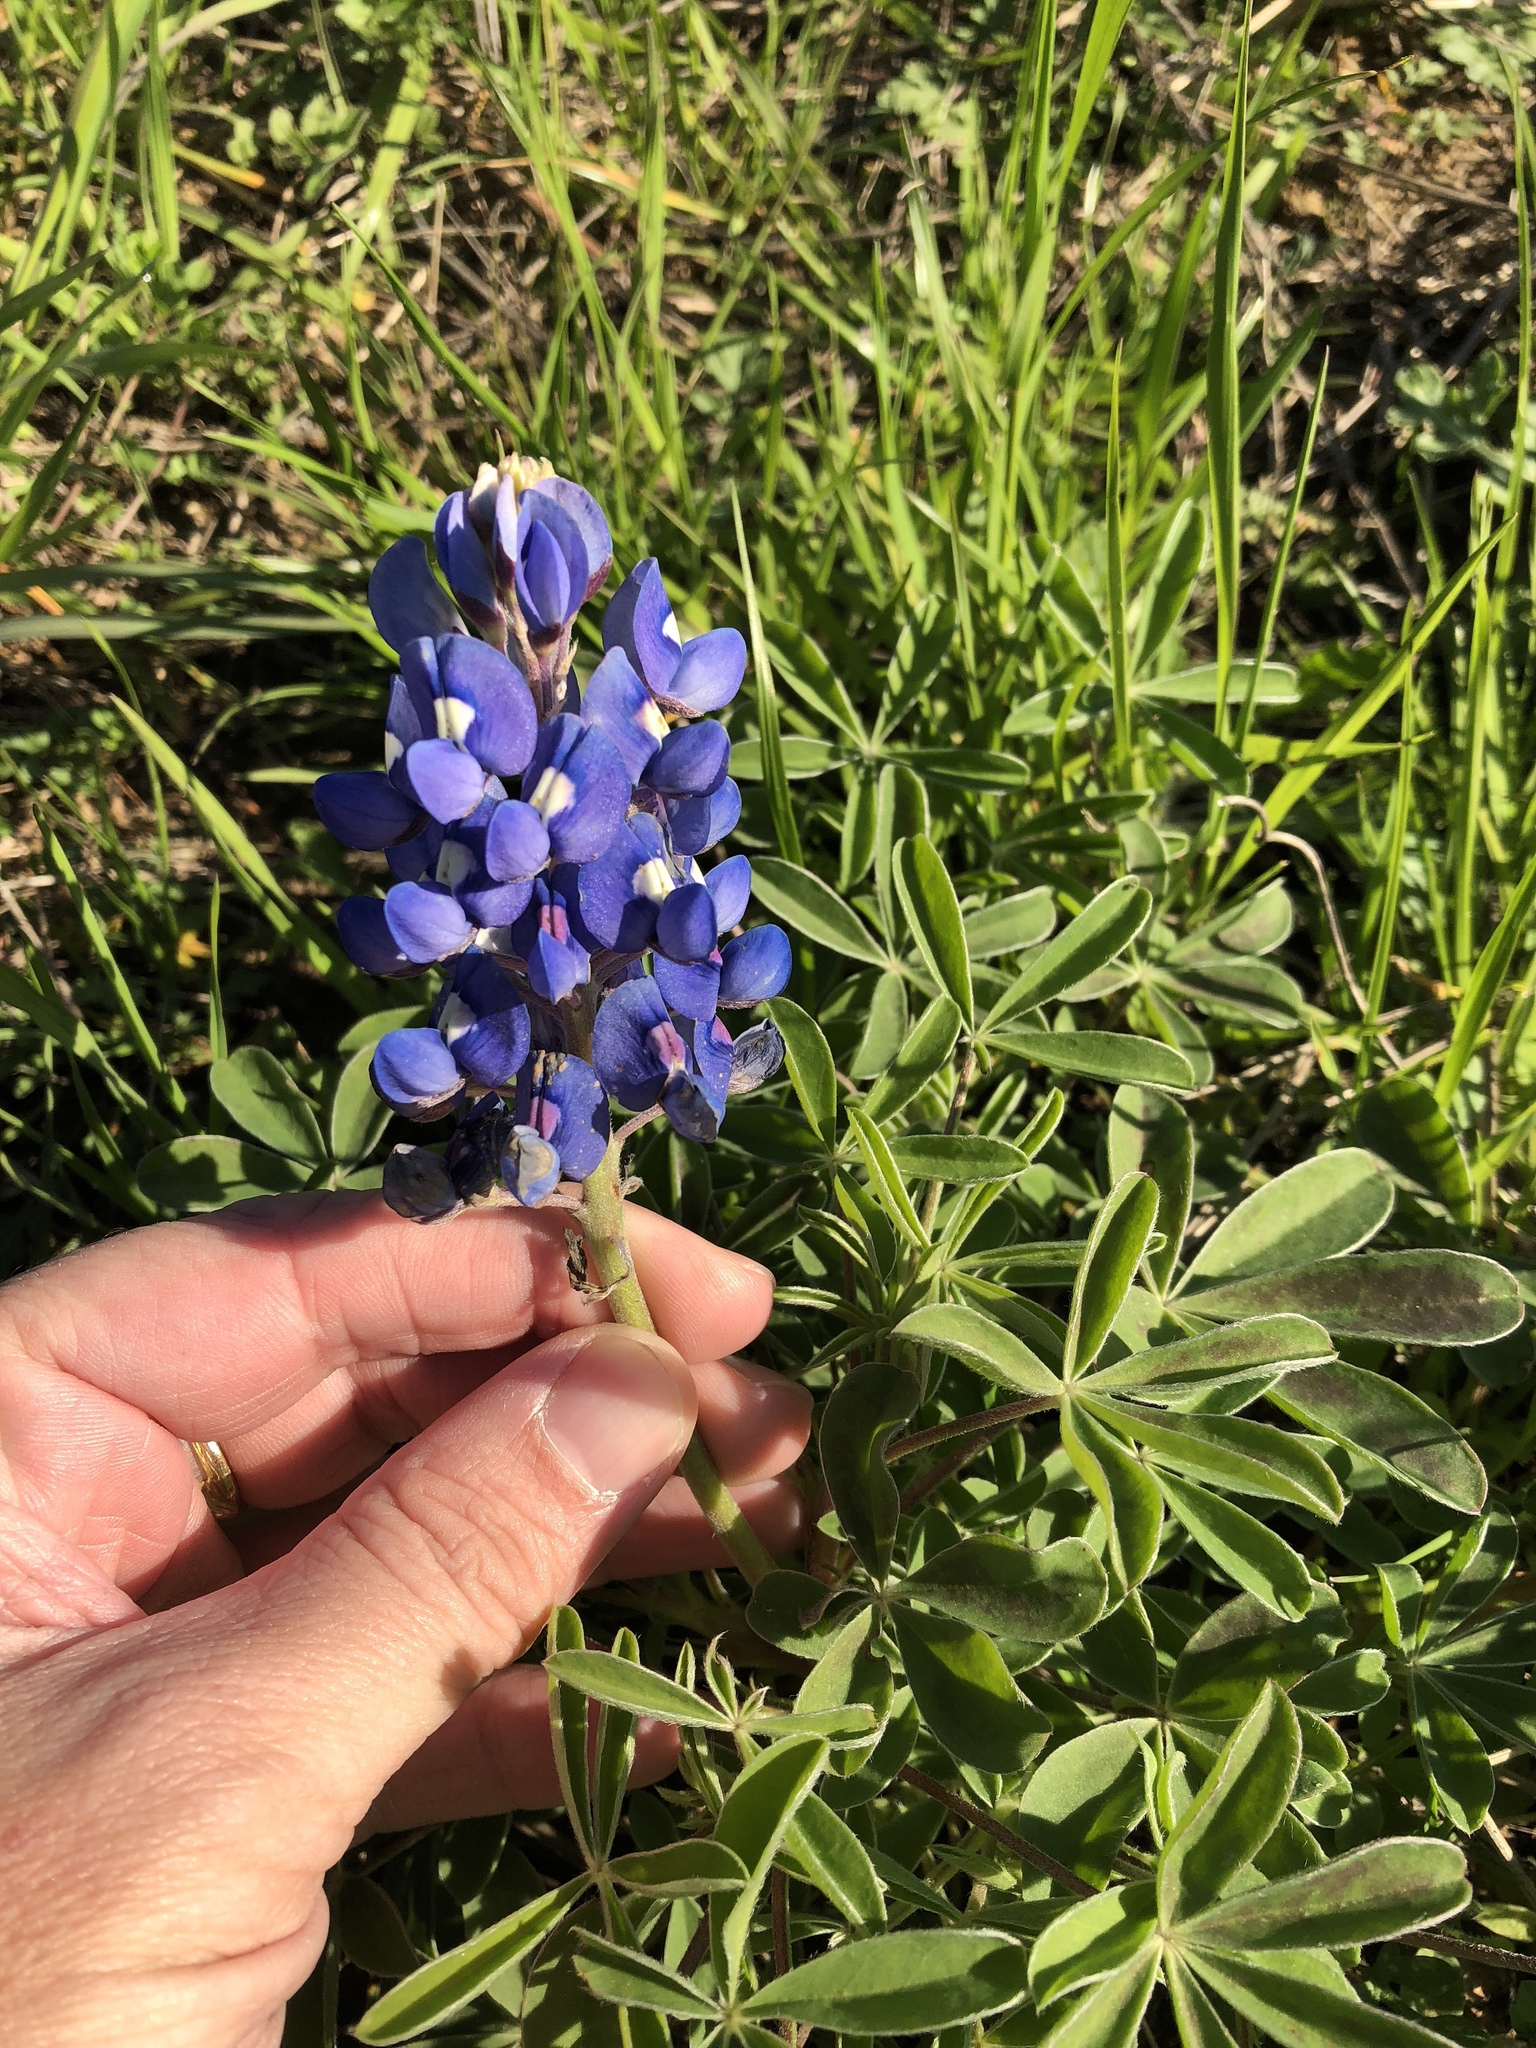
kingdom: Plantae
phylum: Tracheophyta
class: Magnoliopsida
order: Fabales
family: Fabaceae
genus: Lupinus
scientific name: Lupinus texensis
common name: Texas bluebonnet
